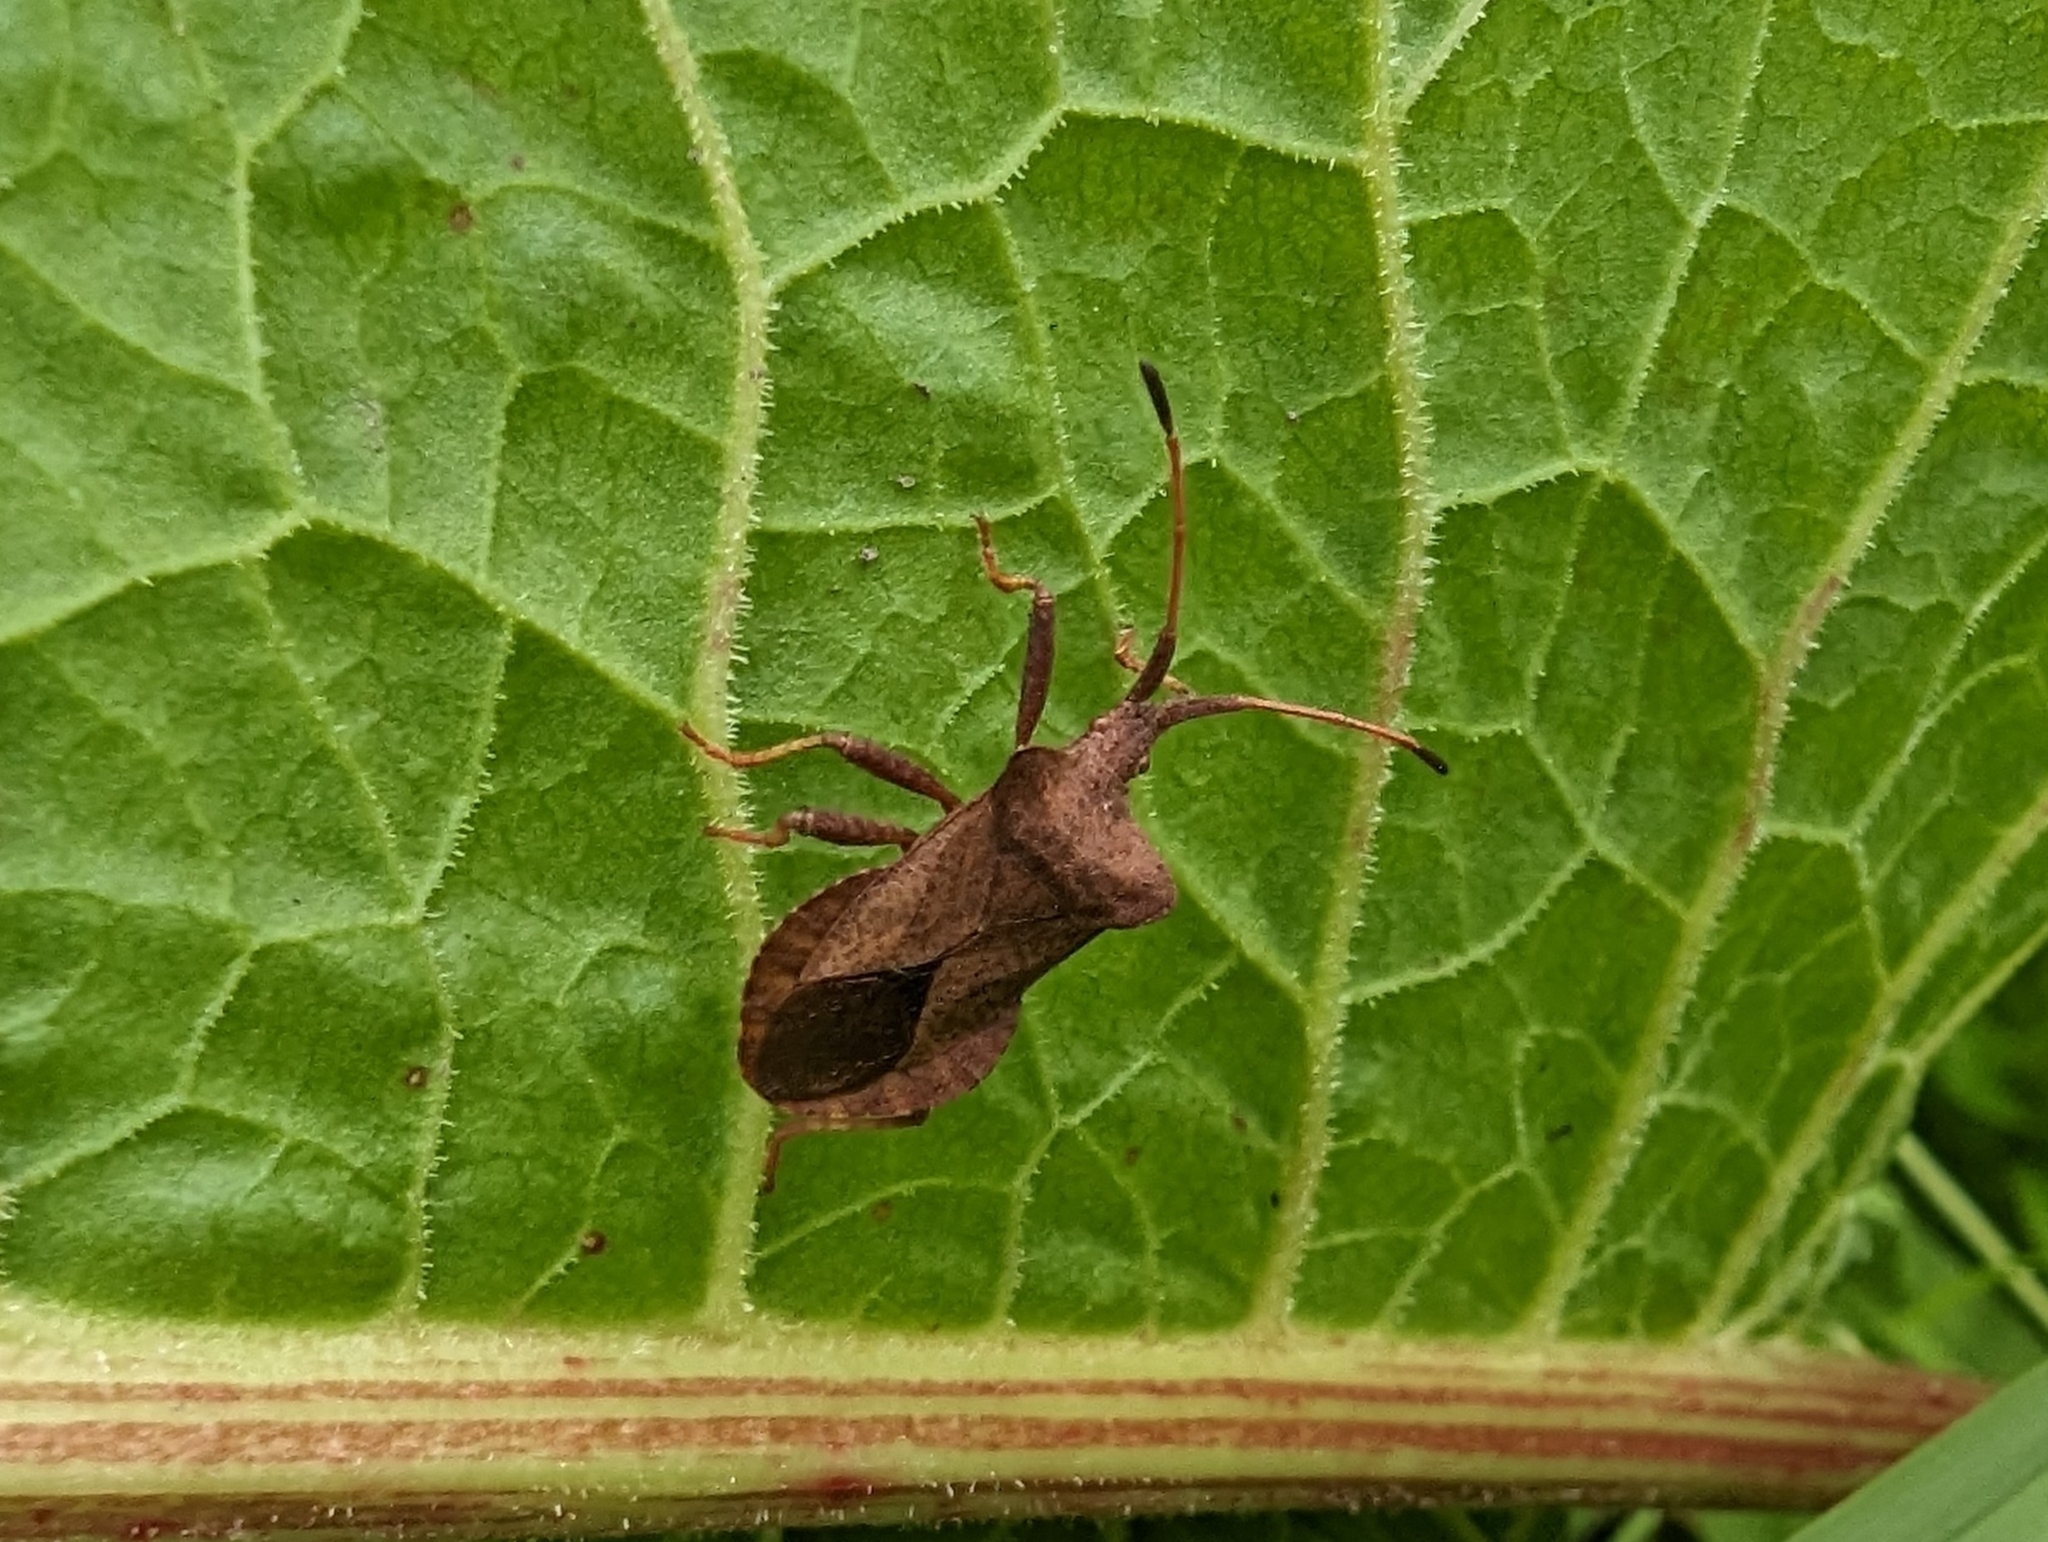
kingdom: Animalia
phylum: Arthropoda
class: Insecta
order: Hemiptera
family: Coreidae
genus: Coreus
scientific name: Coreus marginatus
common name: Dock bug
